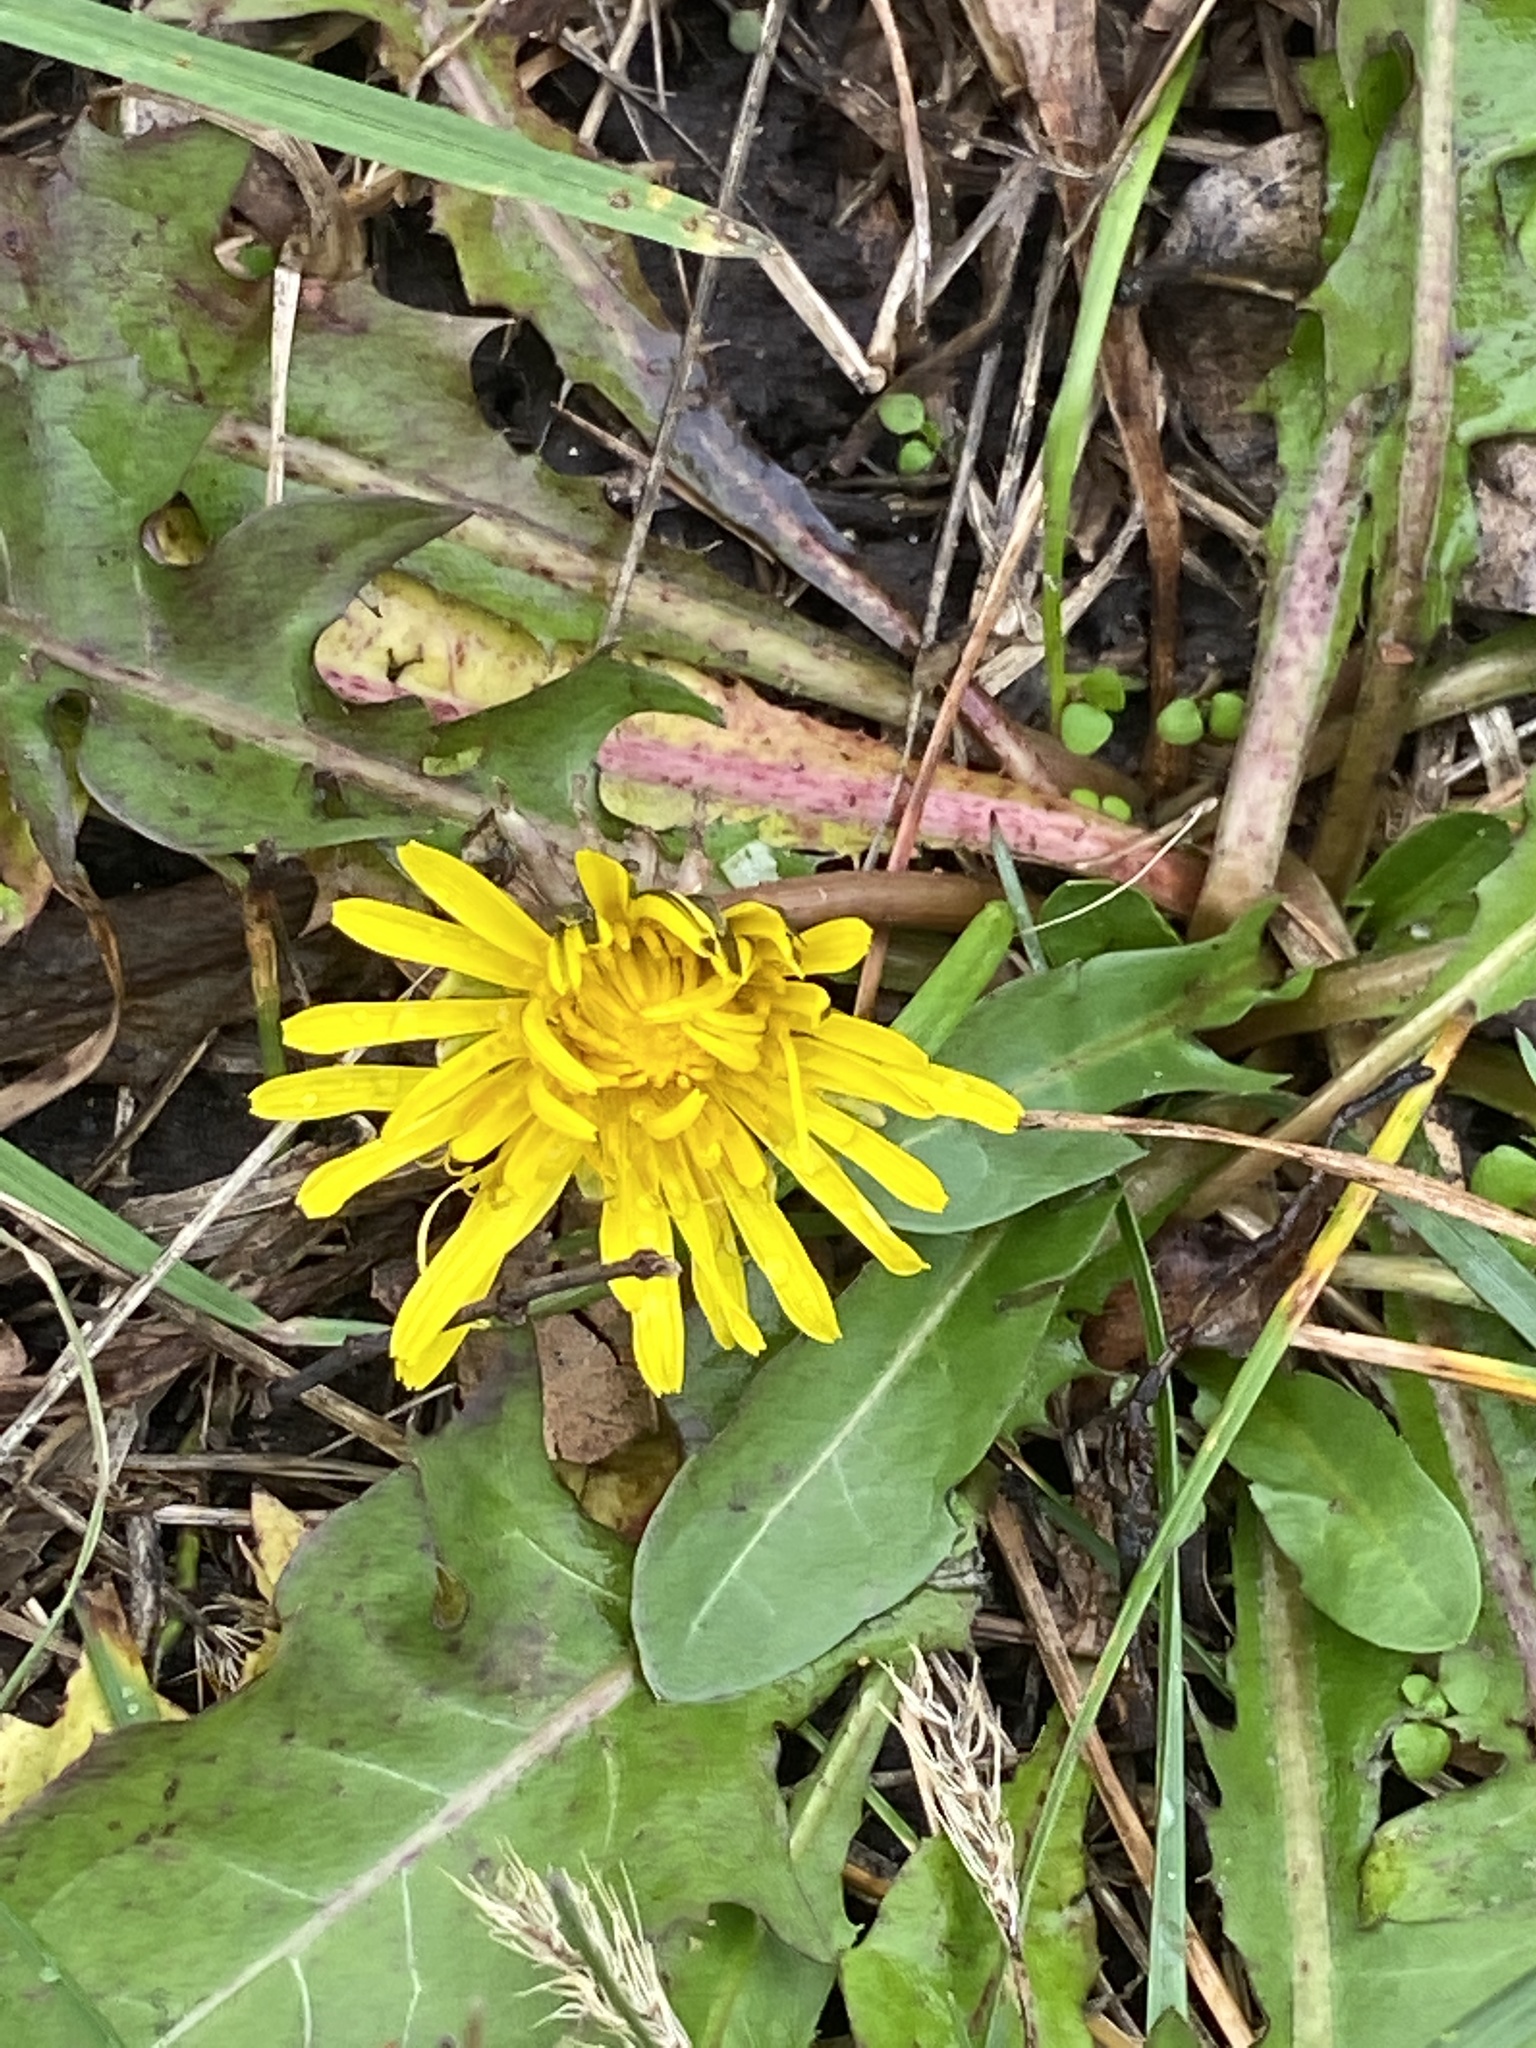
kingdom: Plantae
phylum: Tracheophyta
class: Magnoliopsida
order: Asterales
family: Asteraceae
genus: Taraxacum
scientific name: Taraxacum officinale
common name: Common dandelion
